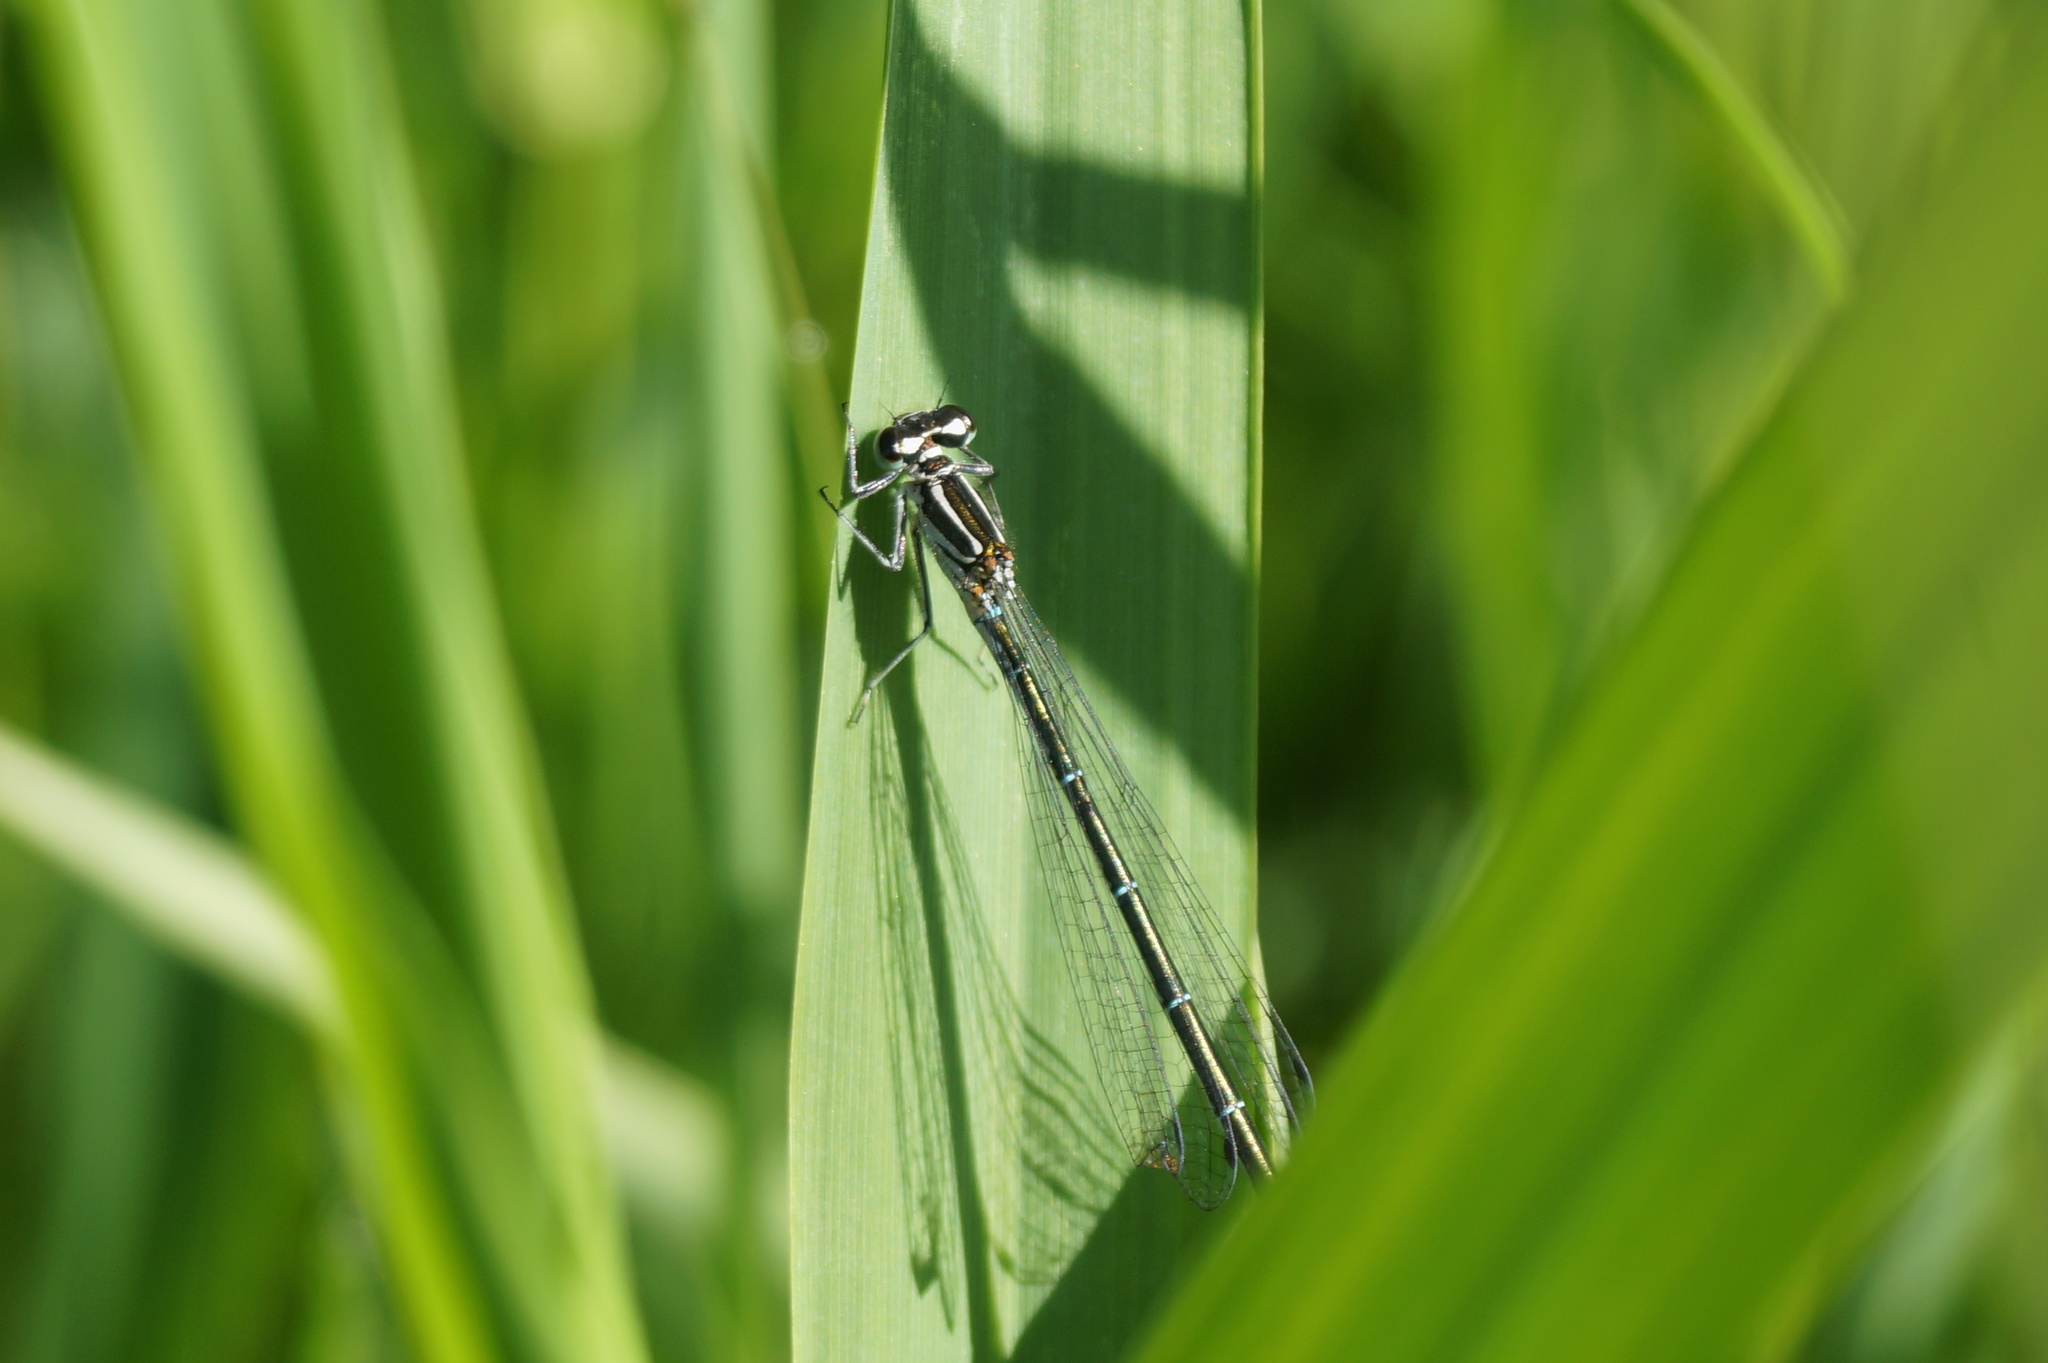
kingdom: Animalia
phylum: Arthropoda
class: Insecta
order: Odonata
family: Coenagrionidae
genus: Coenagrion
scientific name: Coenagrion puella
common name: Azure damselfly
